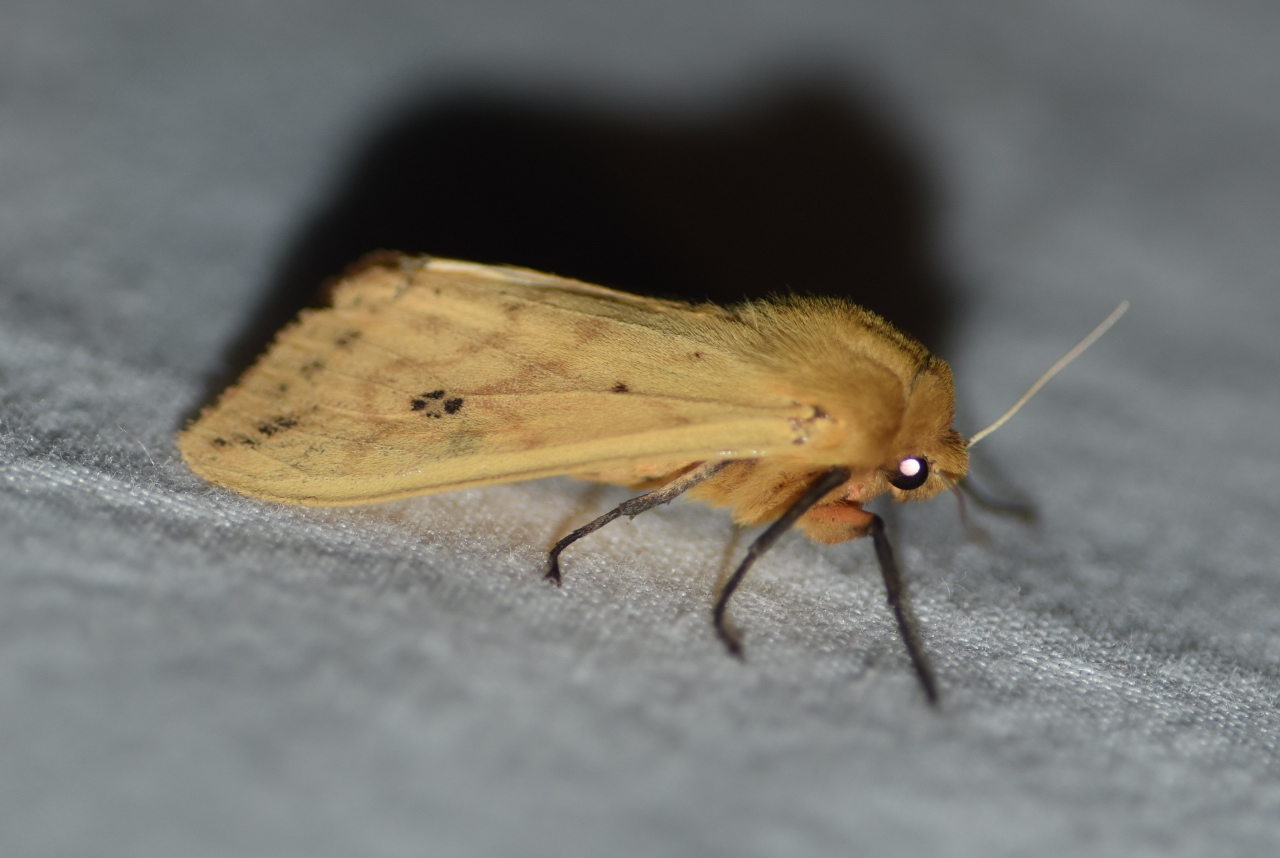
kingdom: Animalia
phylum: Arthropoda
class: Insecta
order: Lepidoptera
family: Erebidae
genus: Pyrrharctia
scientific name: Pyrrharctia isabella
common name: Isabella tiger moth
